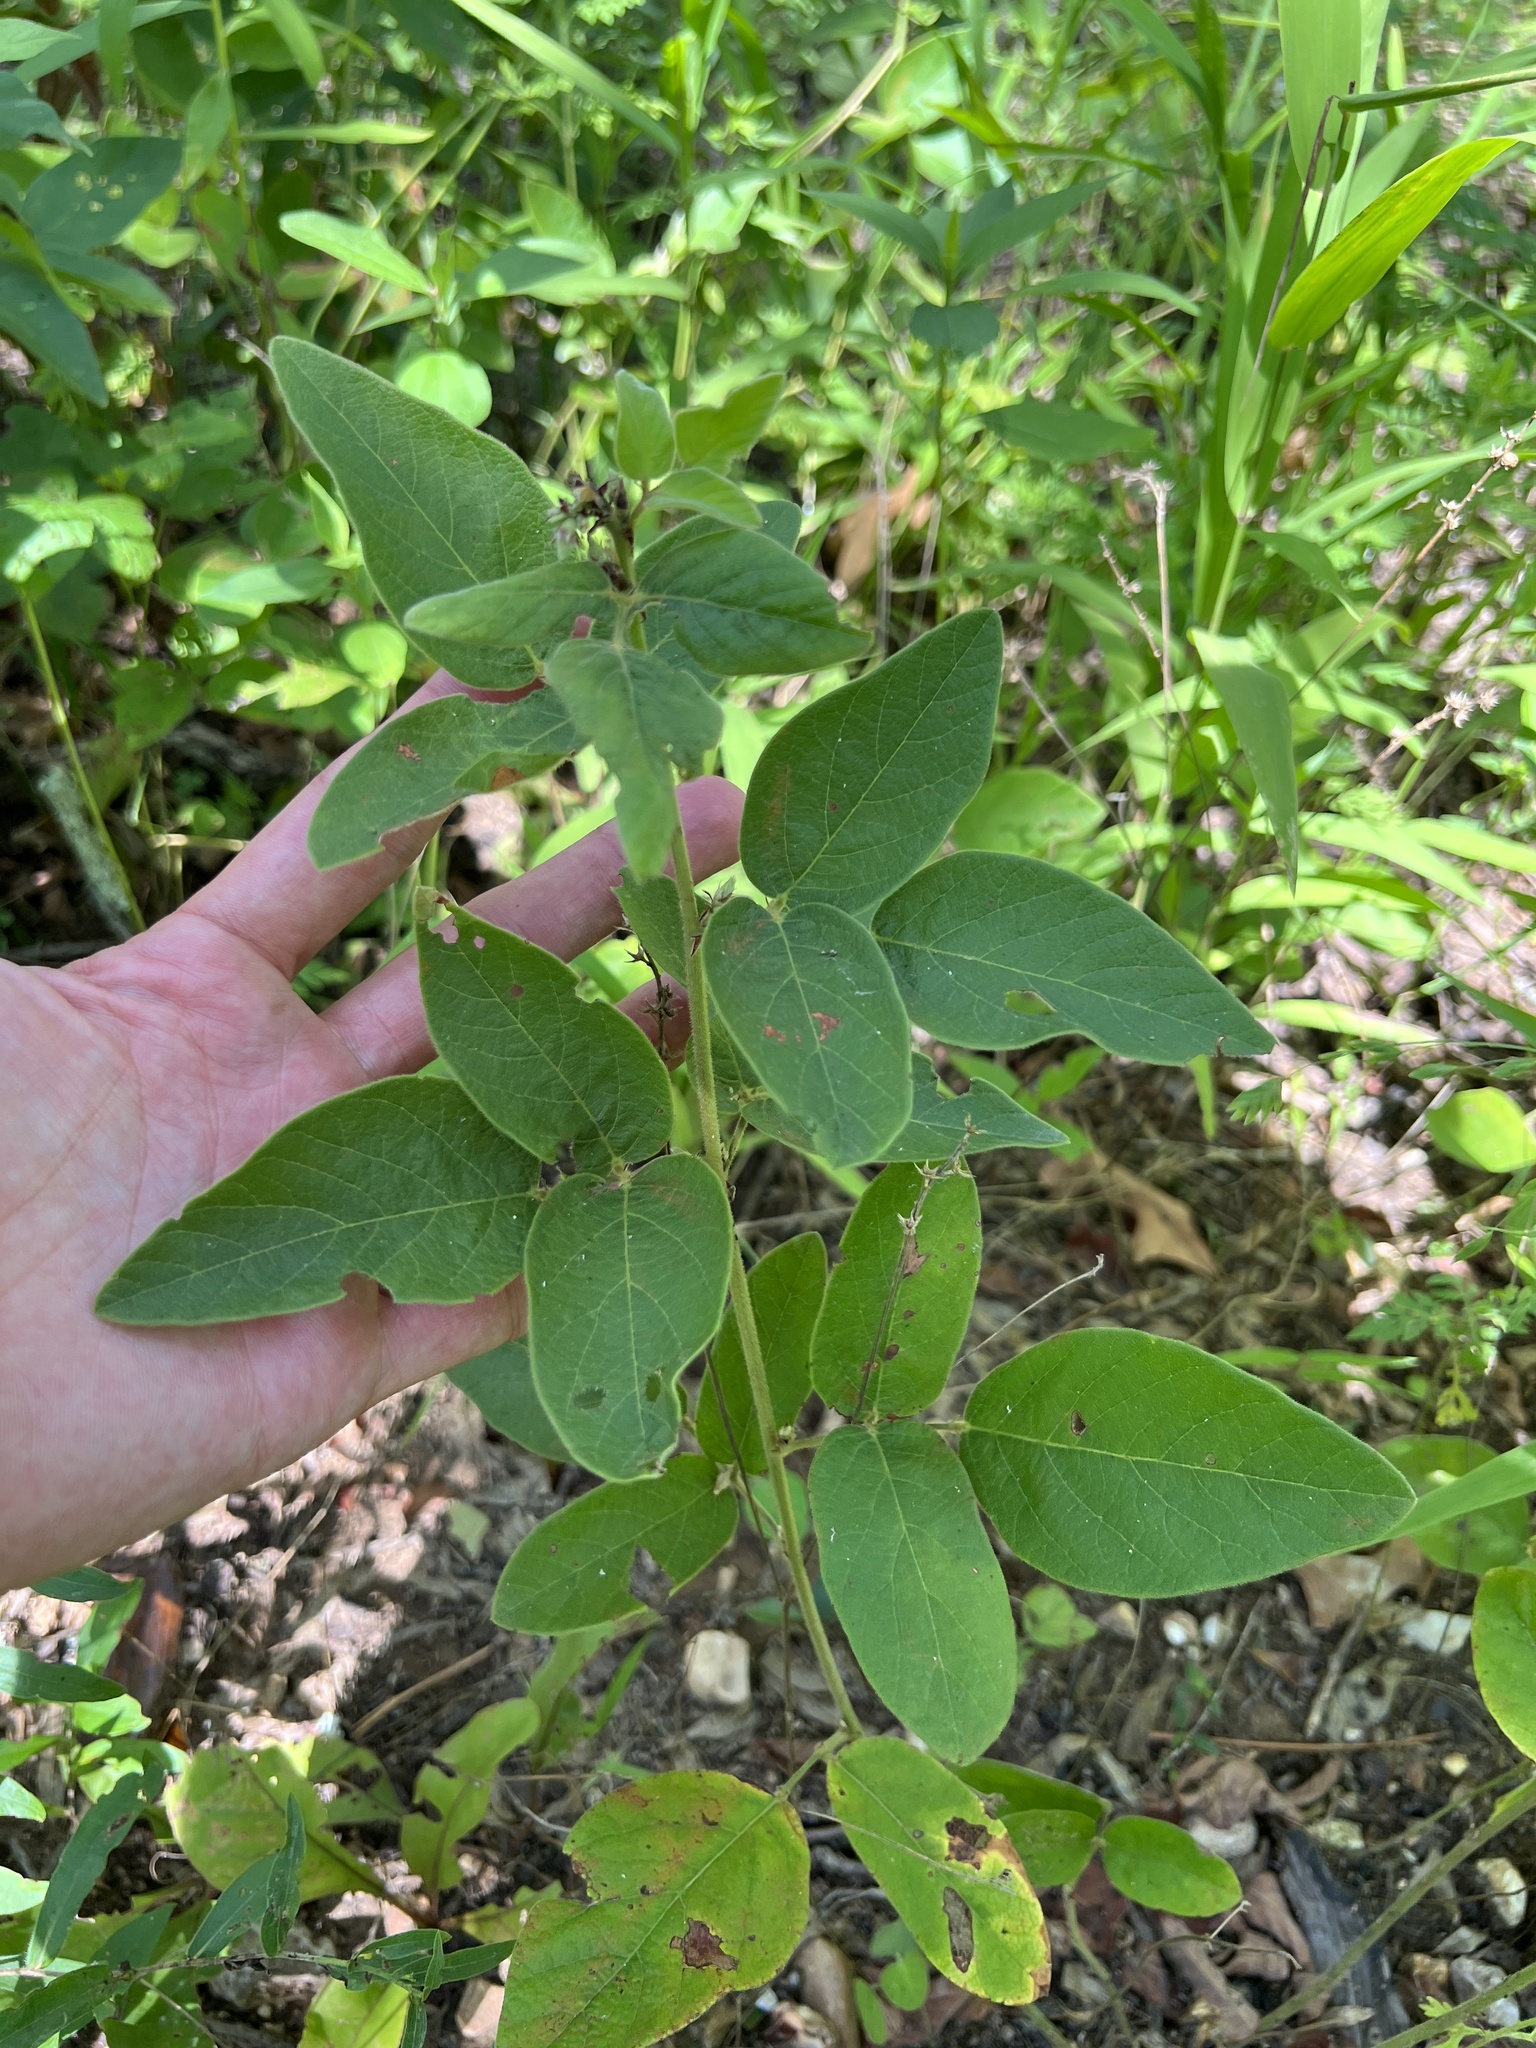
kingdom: Plantae
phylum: Tracheophyta
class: Magnoliopsida
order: Fabales
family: Fabaceae
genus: Desmodium
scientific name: Desmodium nuttallii
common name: Nuttall's tick trefoil
